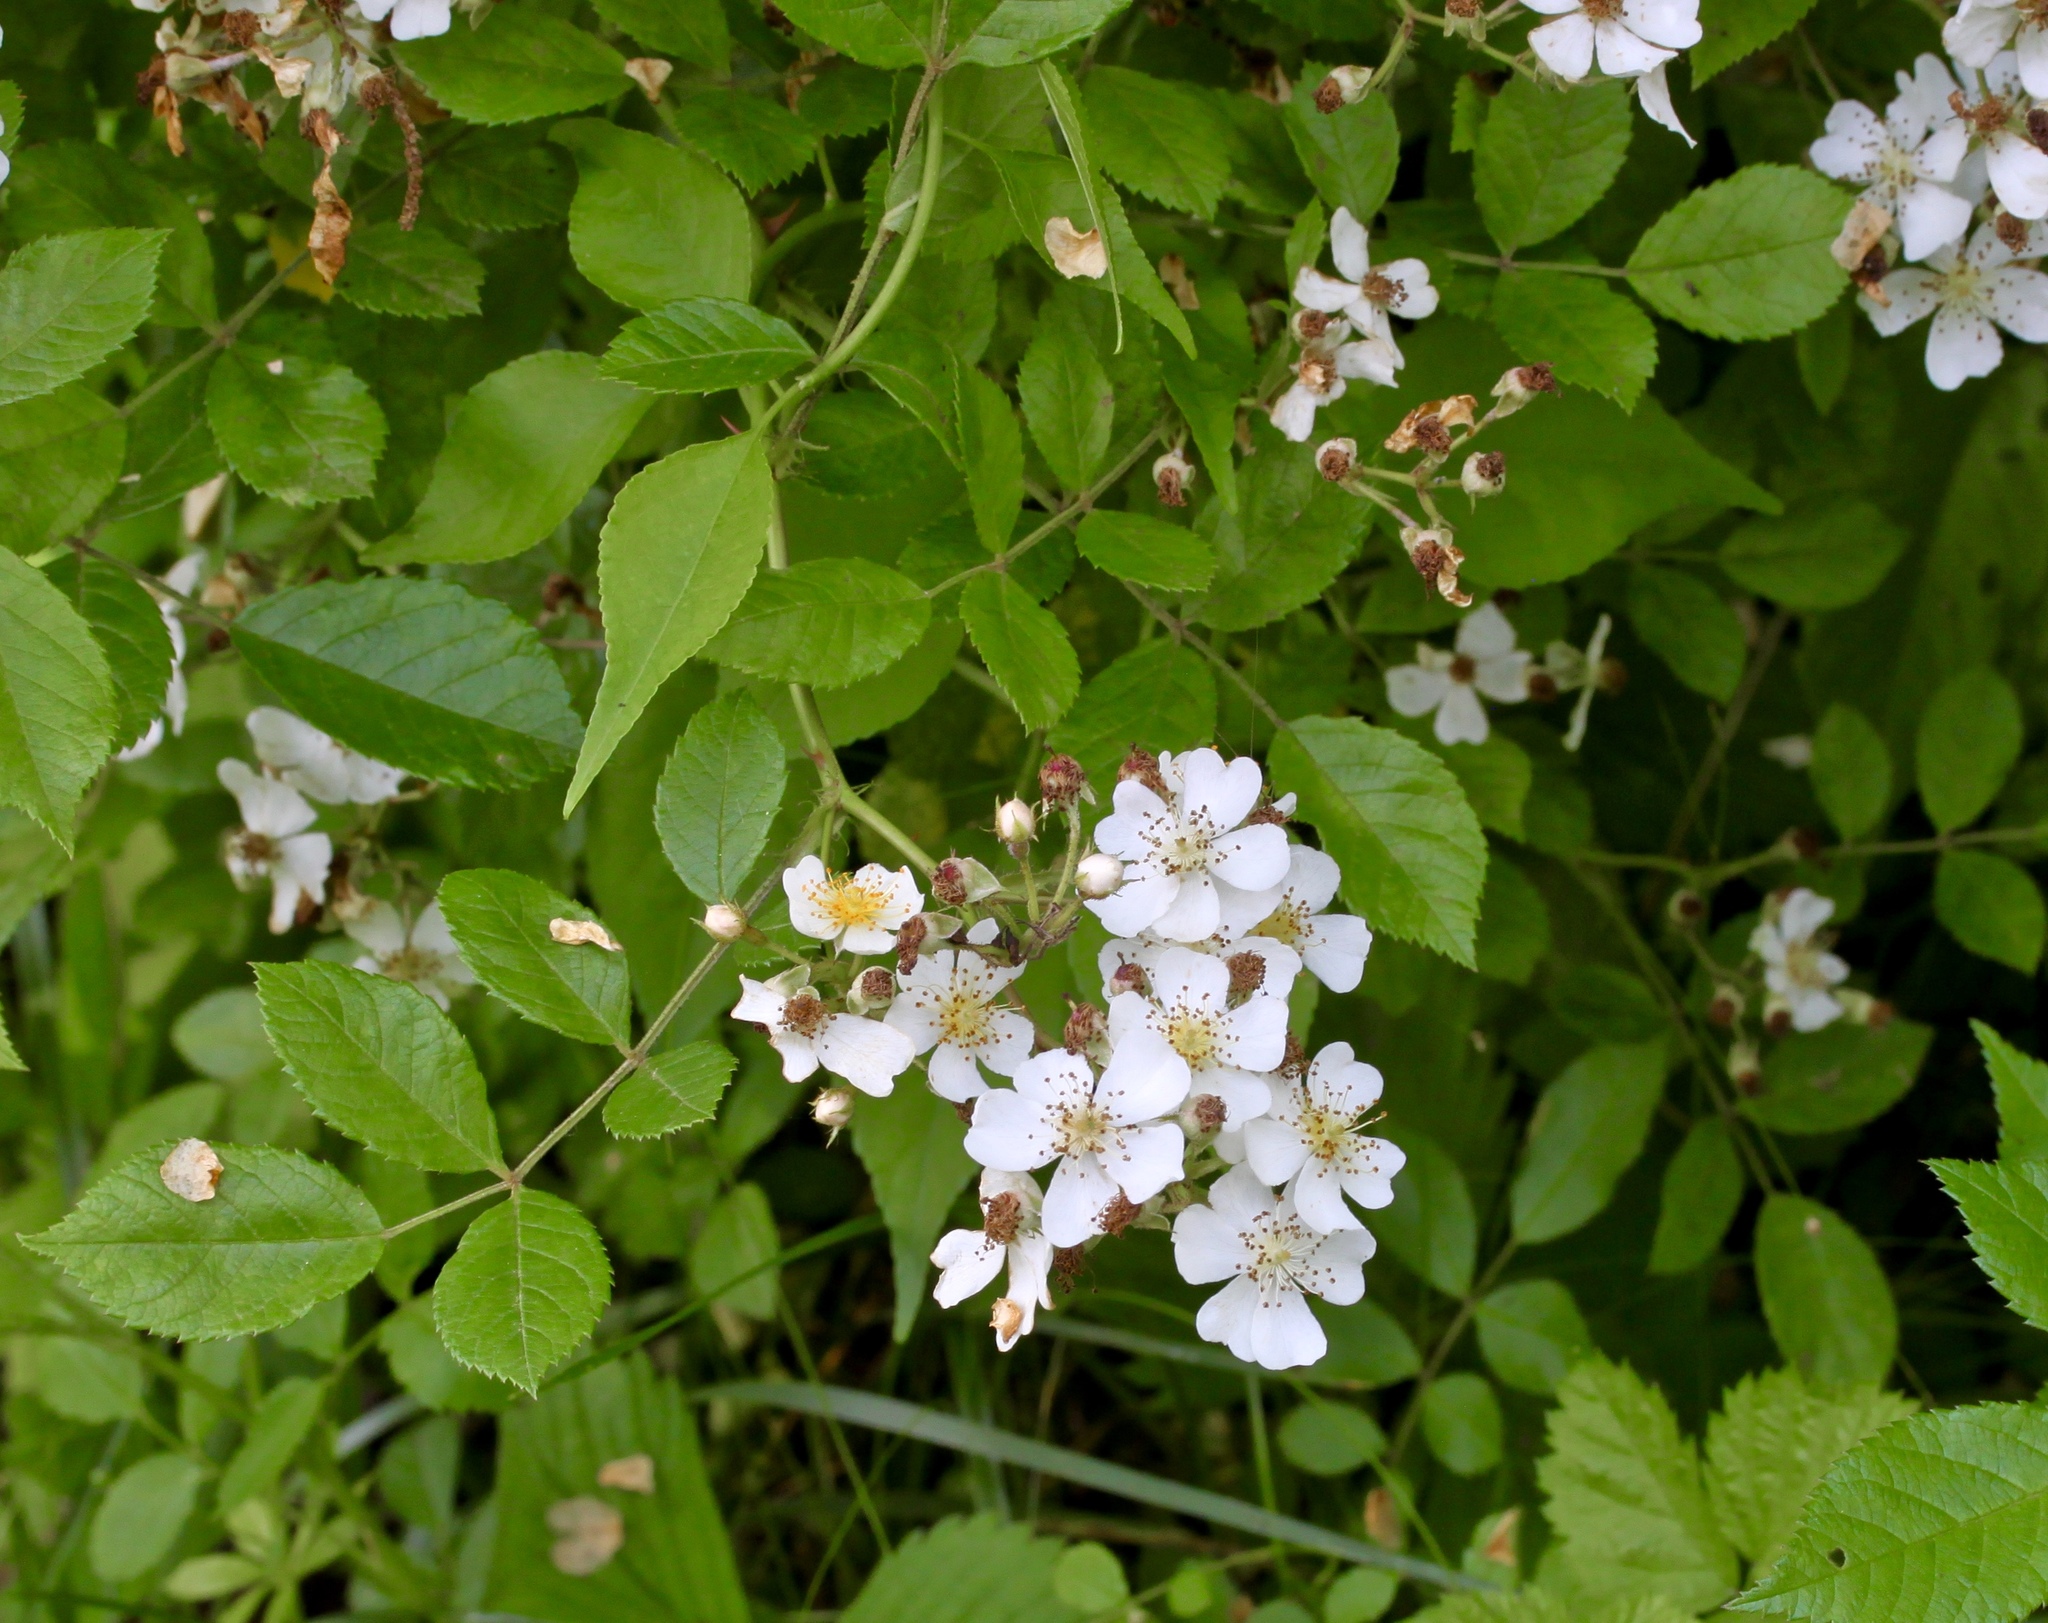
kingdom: Plantae
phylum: Tracheophyta
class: Magnoliopsida
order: Rosales
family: Rosaceae
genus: Rosa
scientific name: Rosa multiflora
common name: Multiflora rose
